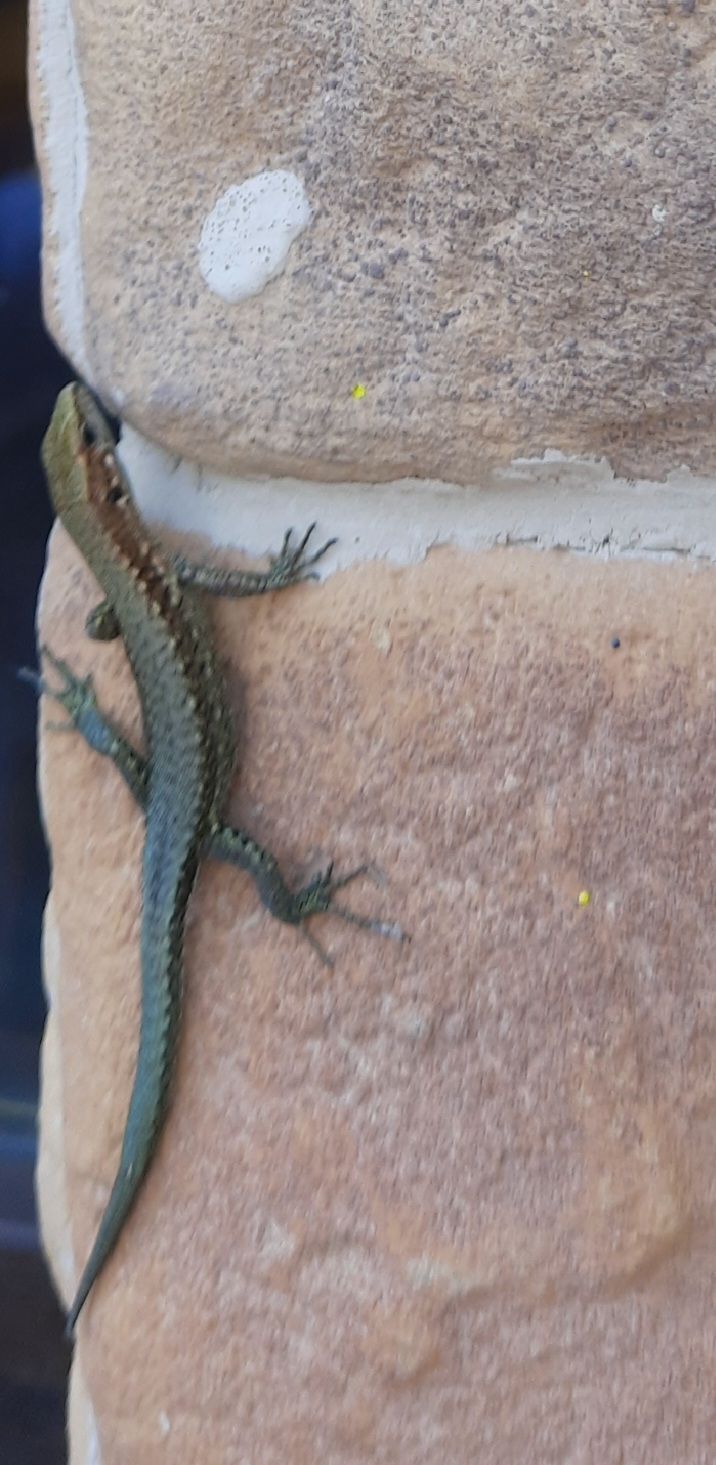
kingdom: Animalia
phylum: Chordata
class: Squamata
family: Lacertidae
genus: Darevskia
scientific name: Darevskia brauneri
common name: Brauner's rock lizard
